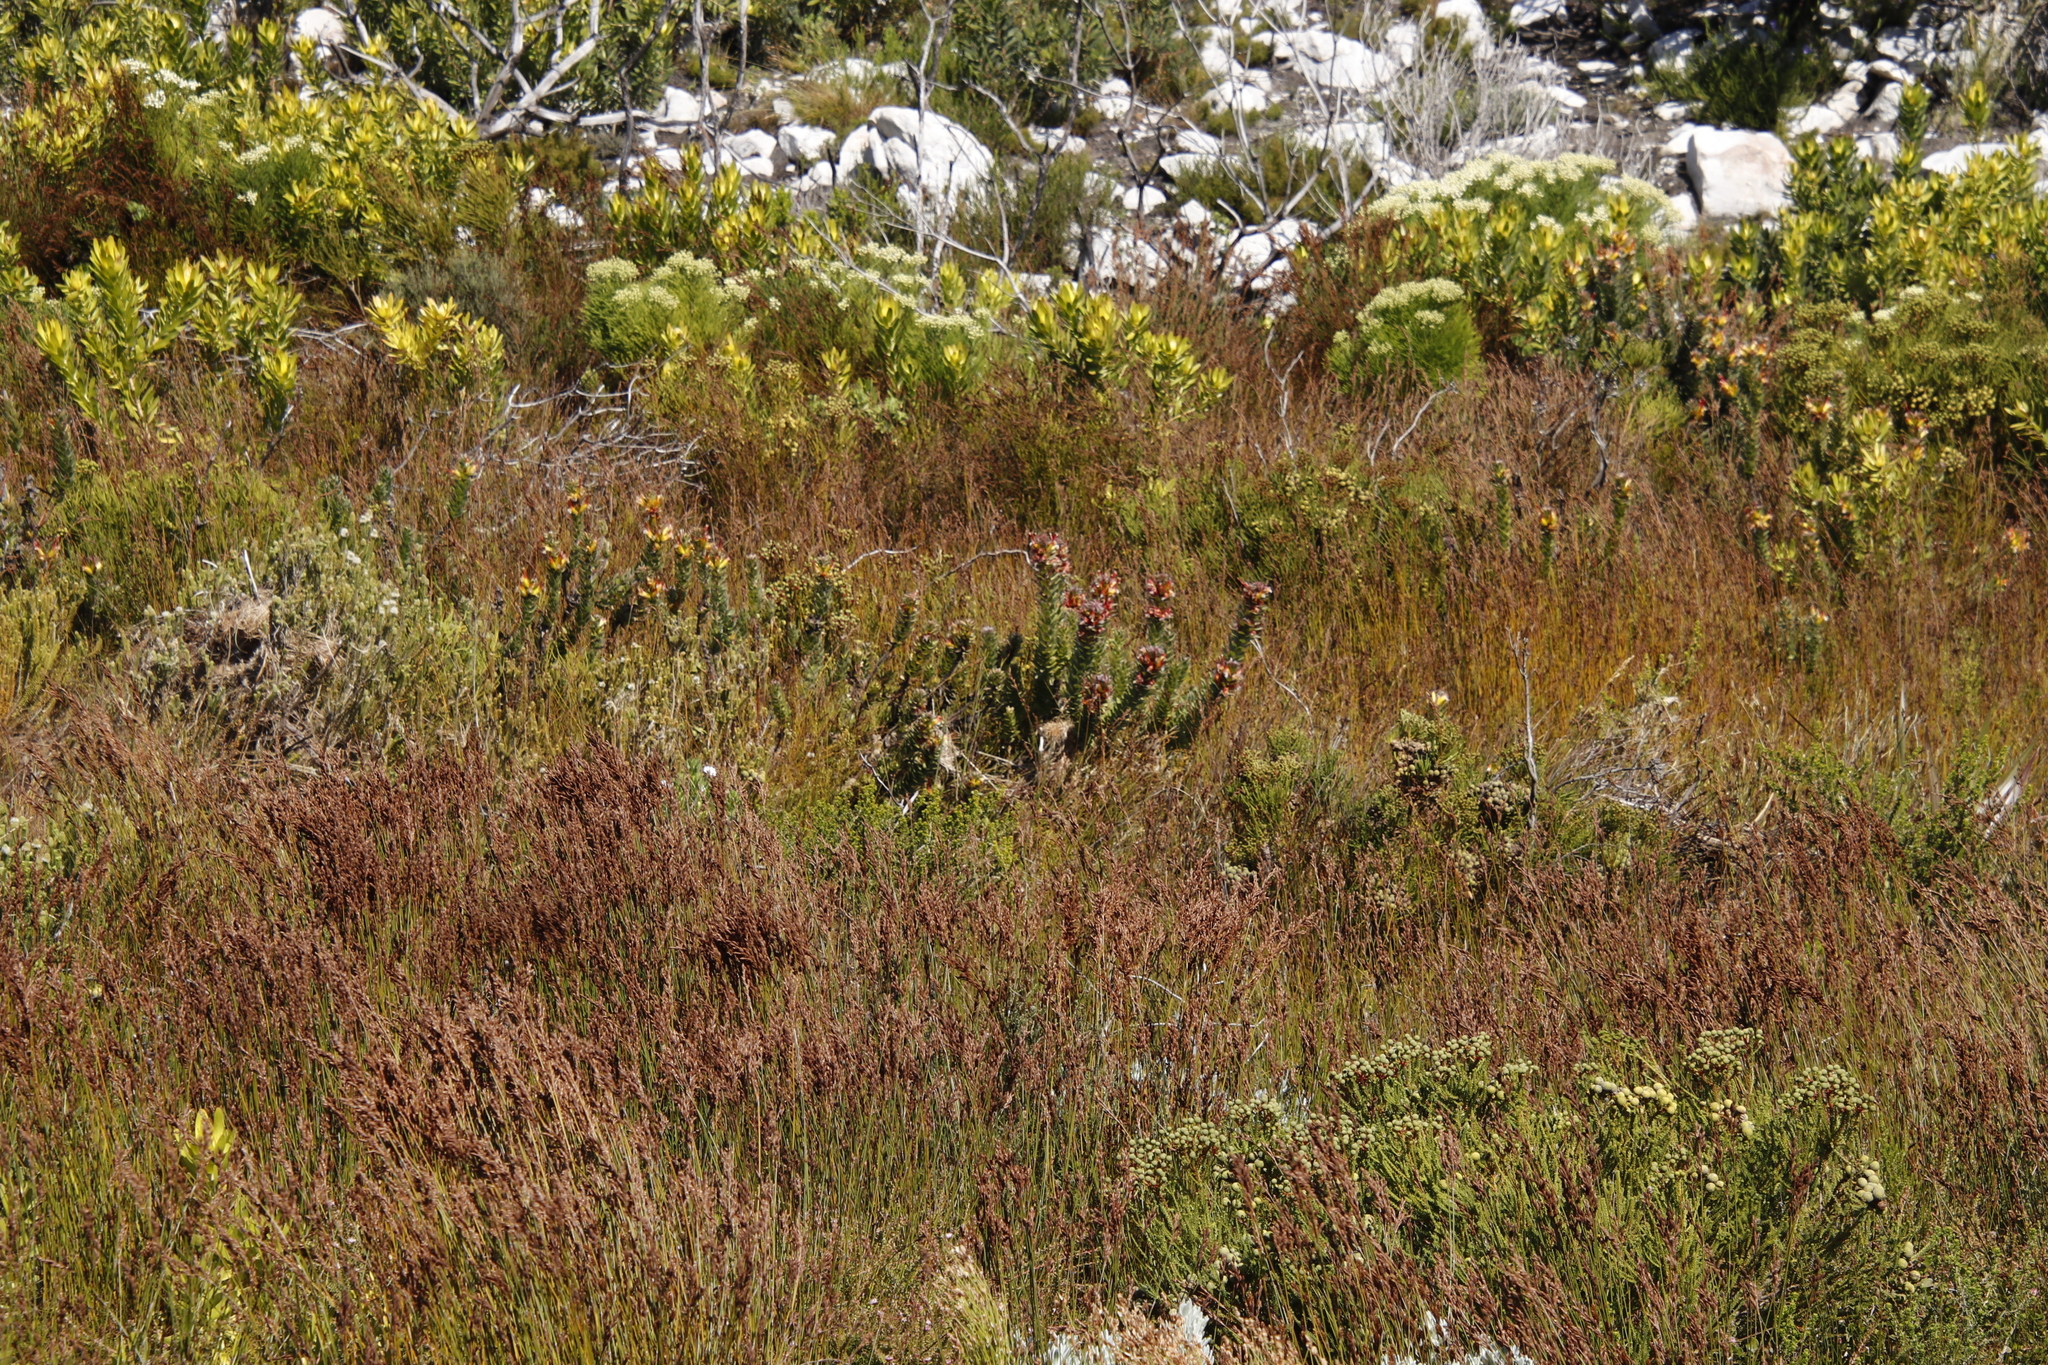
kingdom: Plantae
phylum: Tracheophyta
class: Magnoliopsida
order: Proteales
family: Proteaceae
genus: Mimetes
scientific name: Mimetes hirtus
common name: Marsh pagoda
